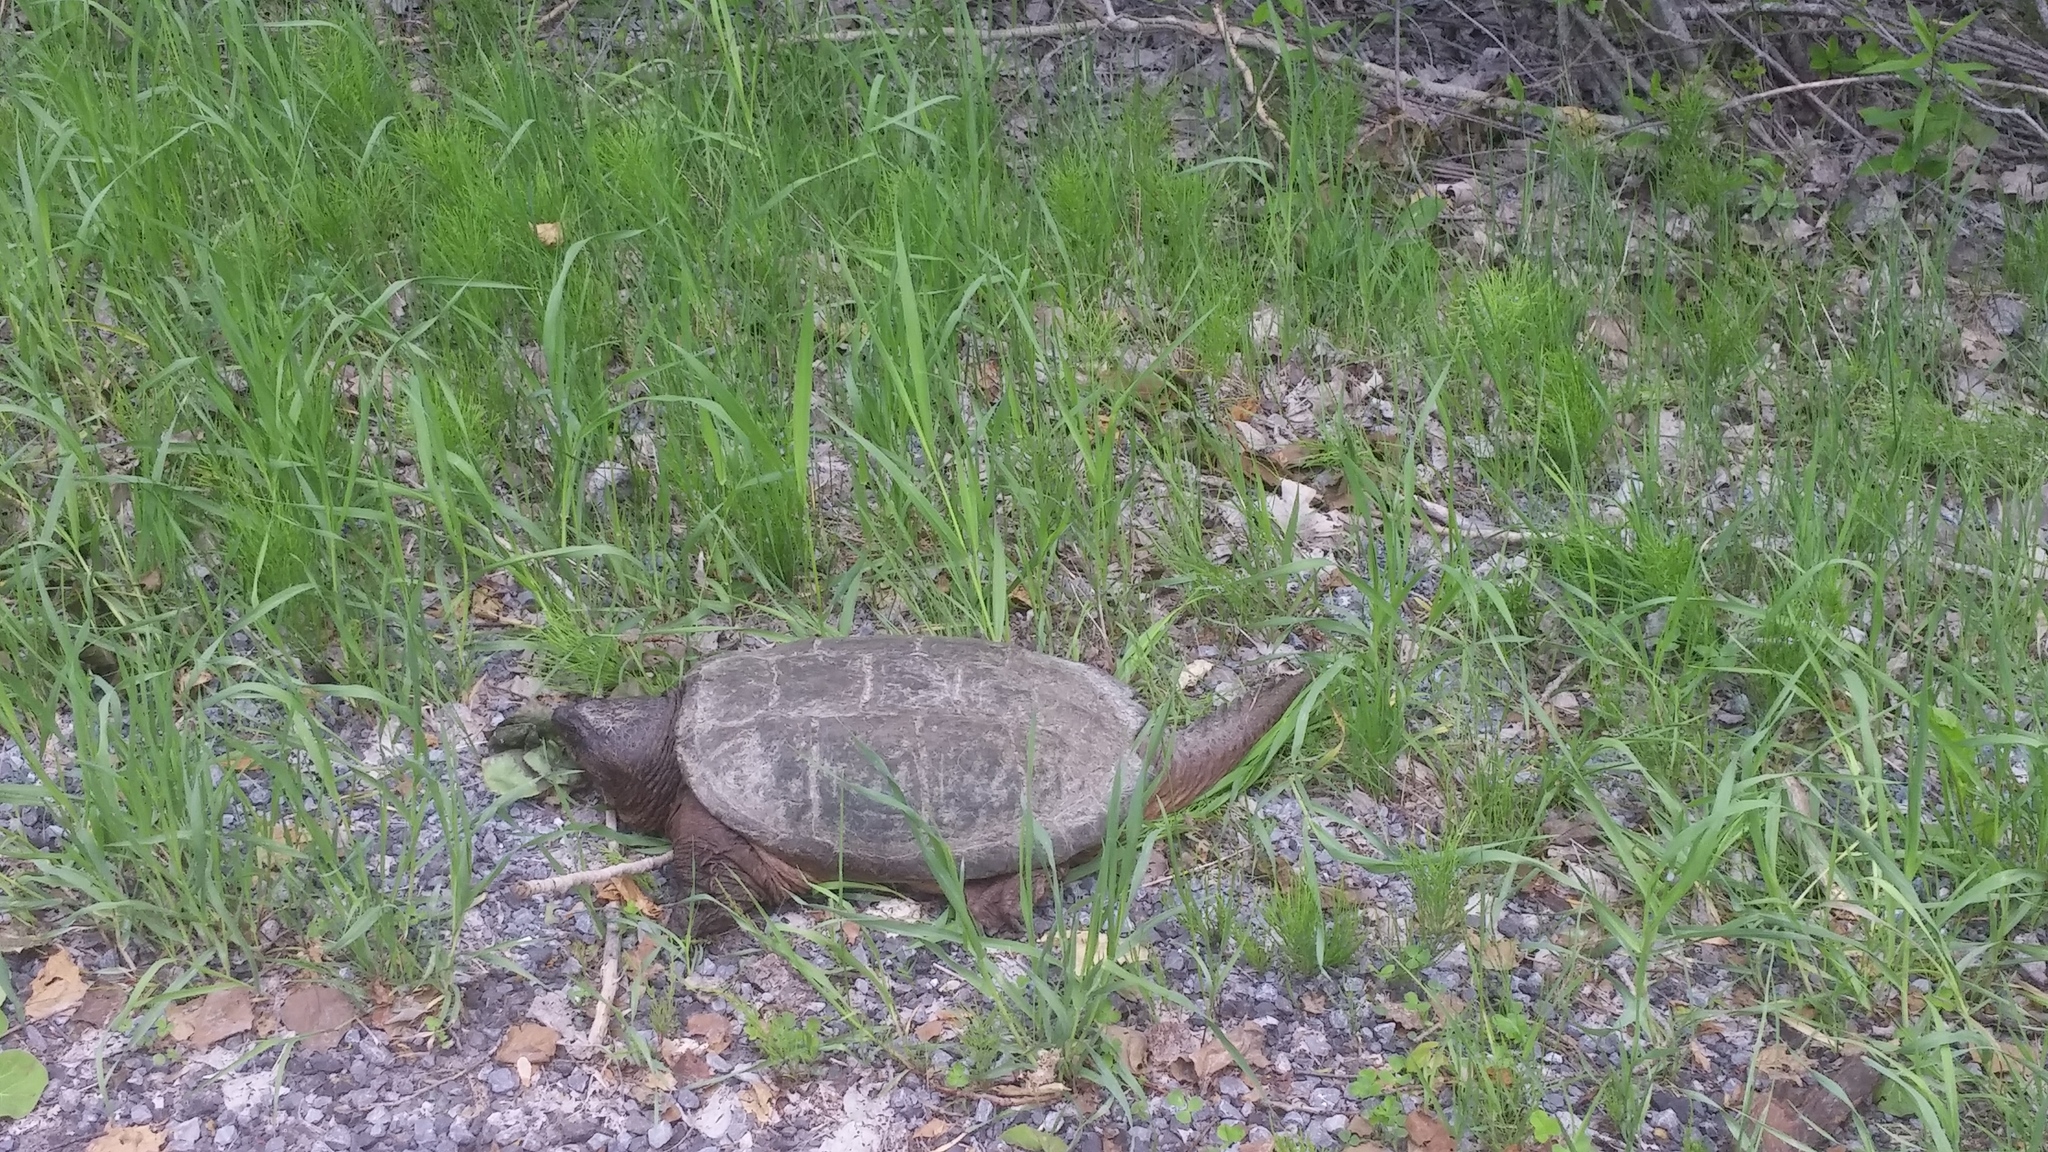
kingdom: Animalia
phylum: Chordata
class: Testudines
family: Chelydridae
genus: Chelydra
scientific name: Chelydra serpentina
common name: Common snapping turtle
